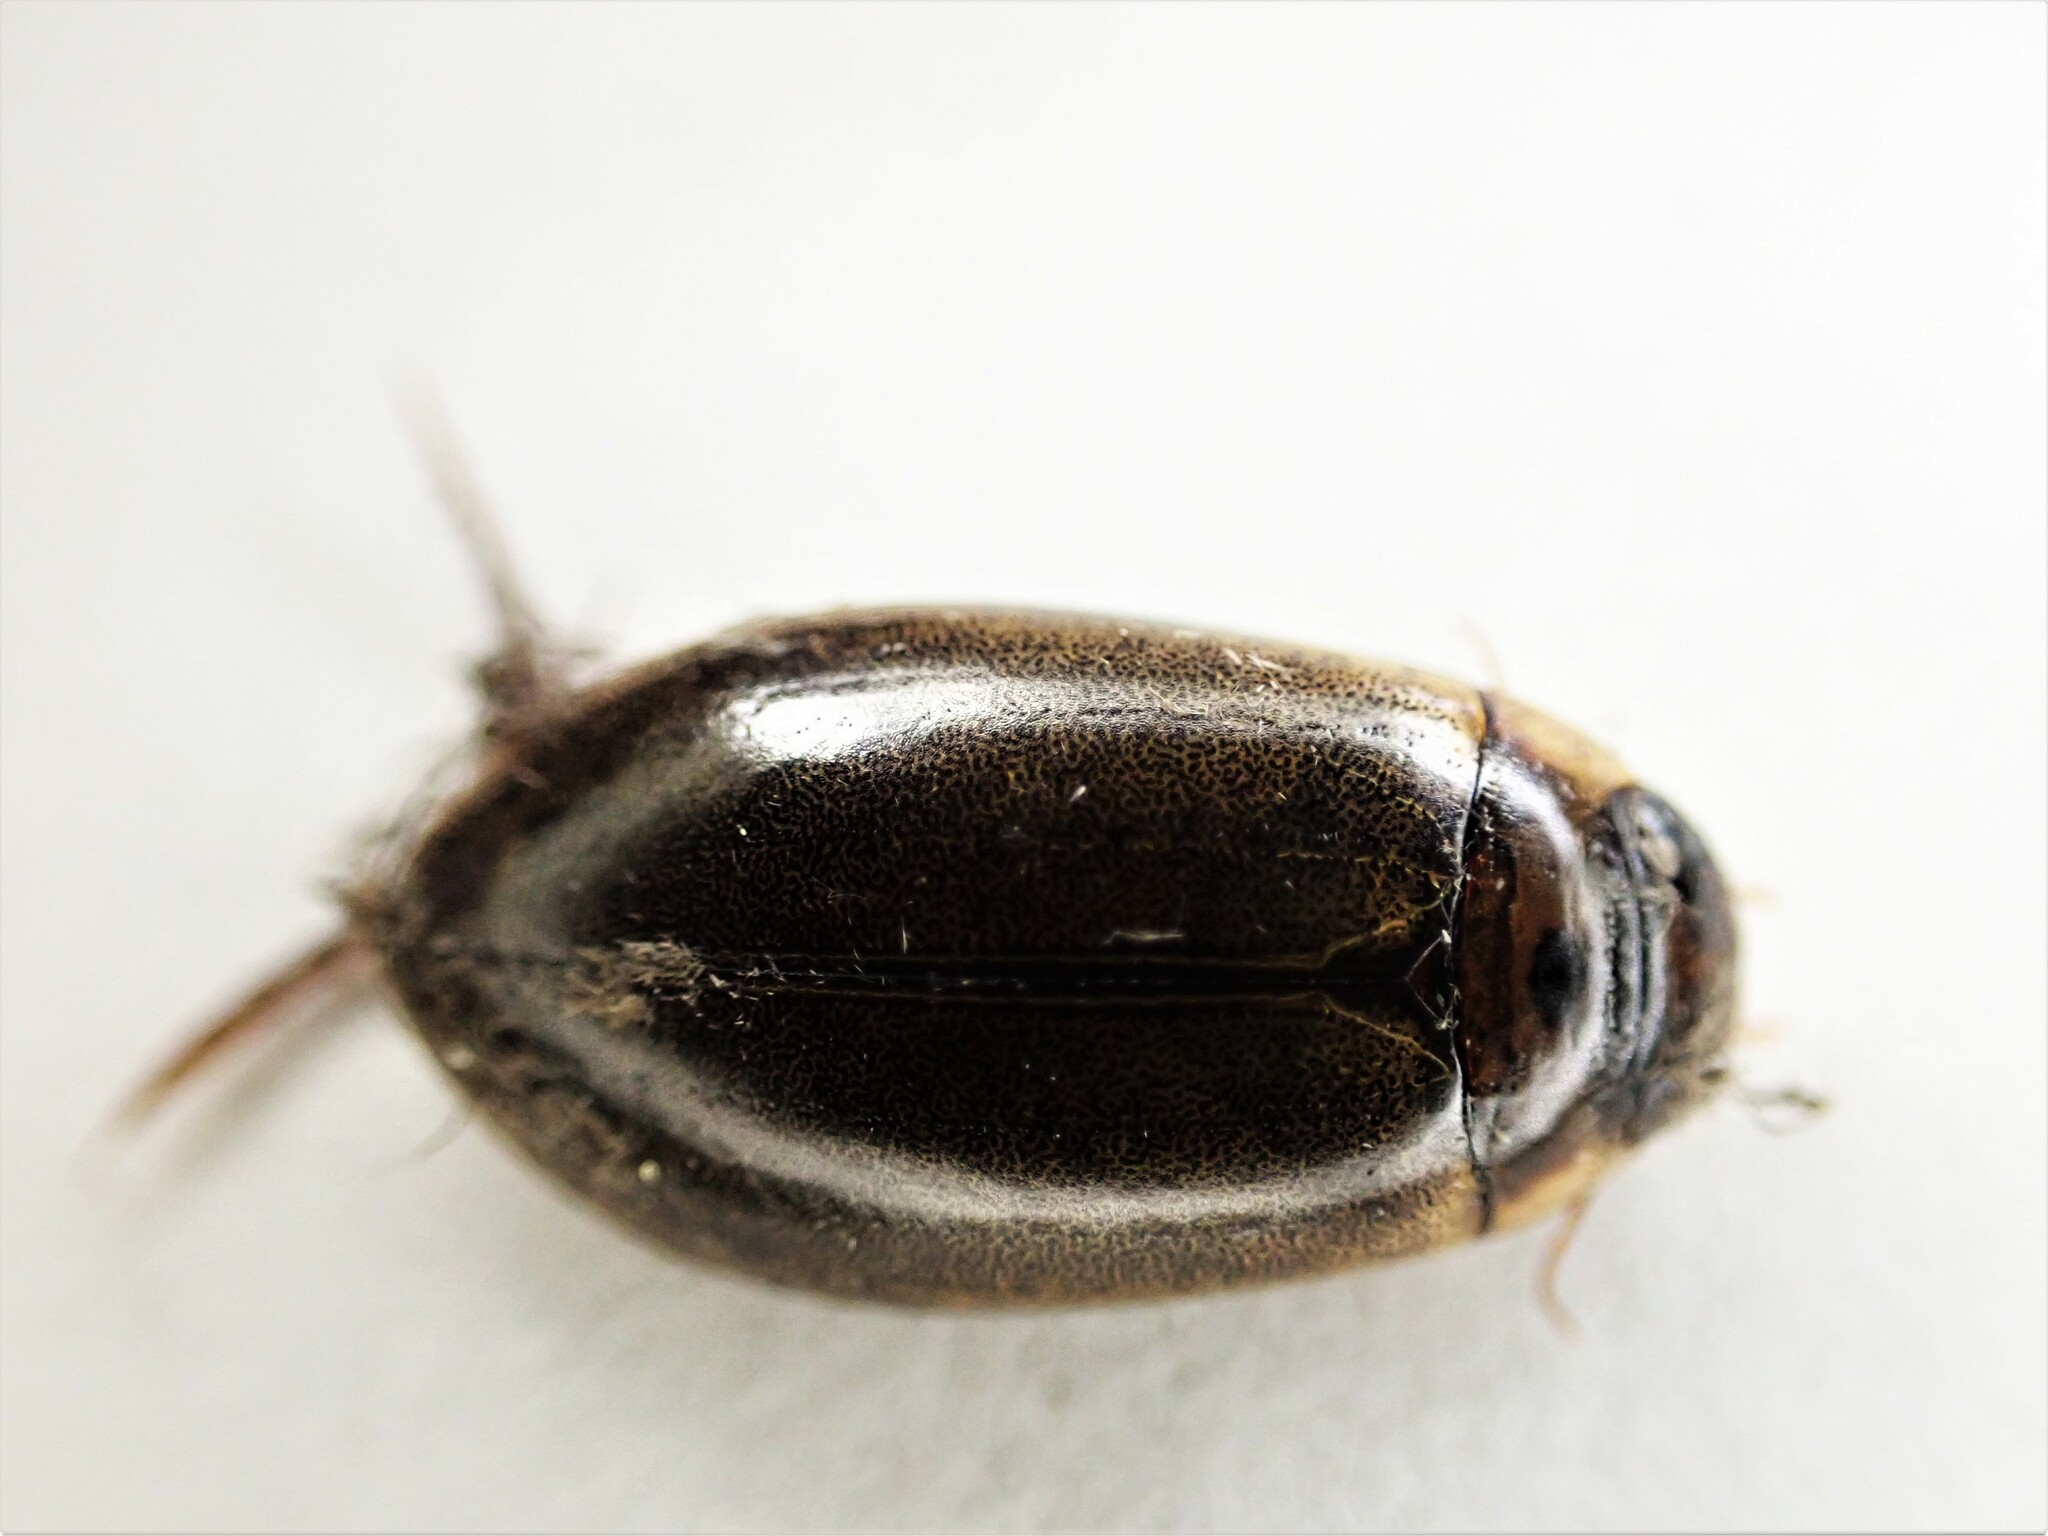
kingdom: Animalia
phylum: Arthropoda
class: Insecta
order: Coleoptera
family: Dytiscidae
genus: Rhantus
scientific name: Rhantus suturalis
